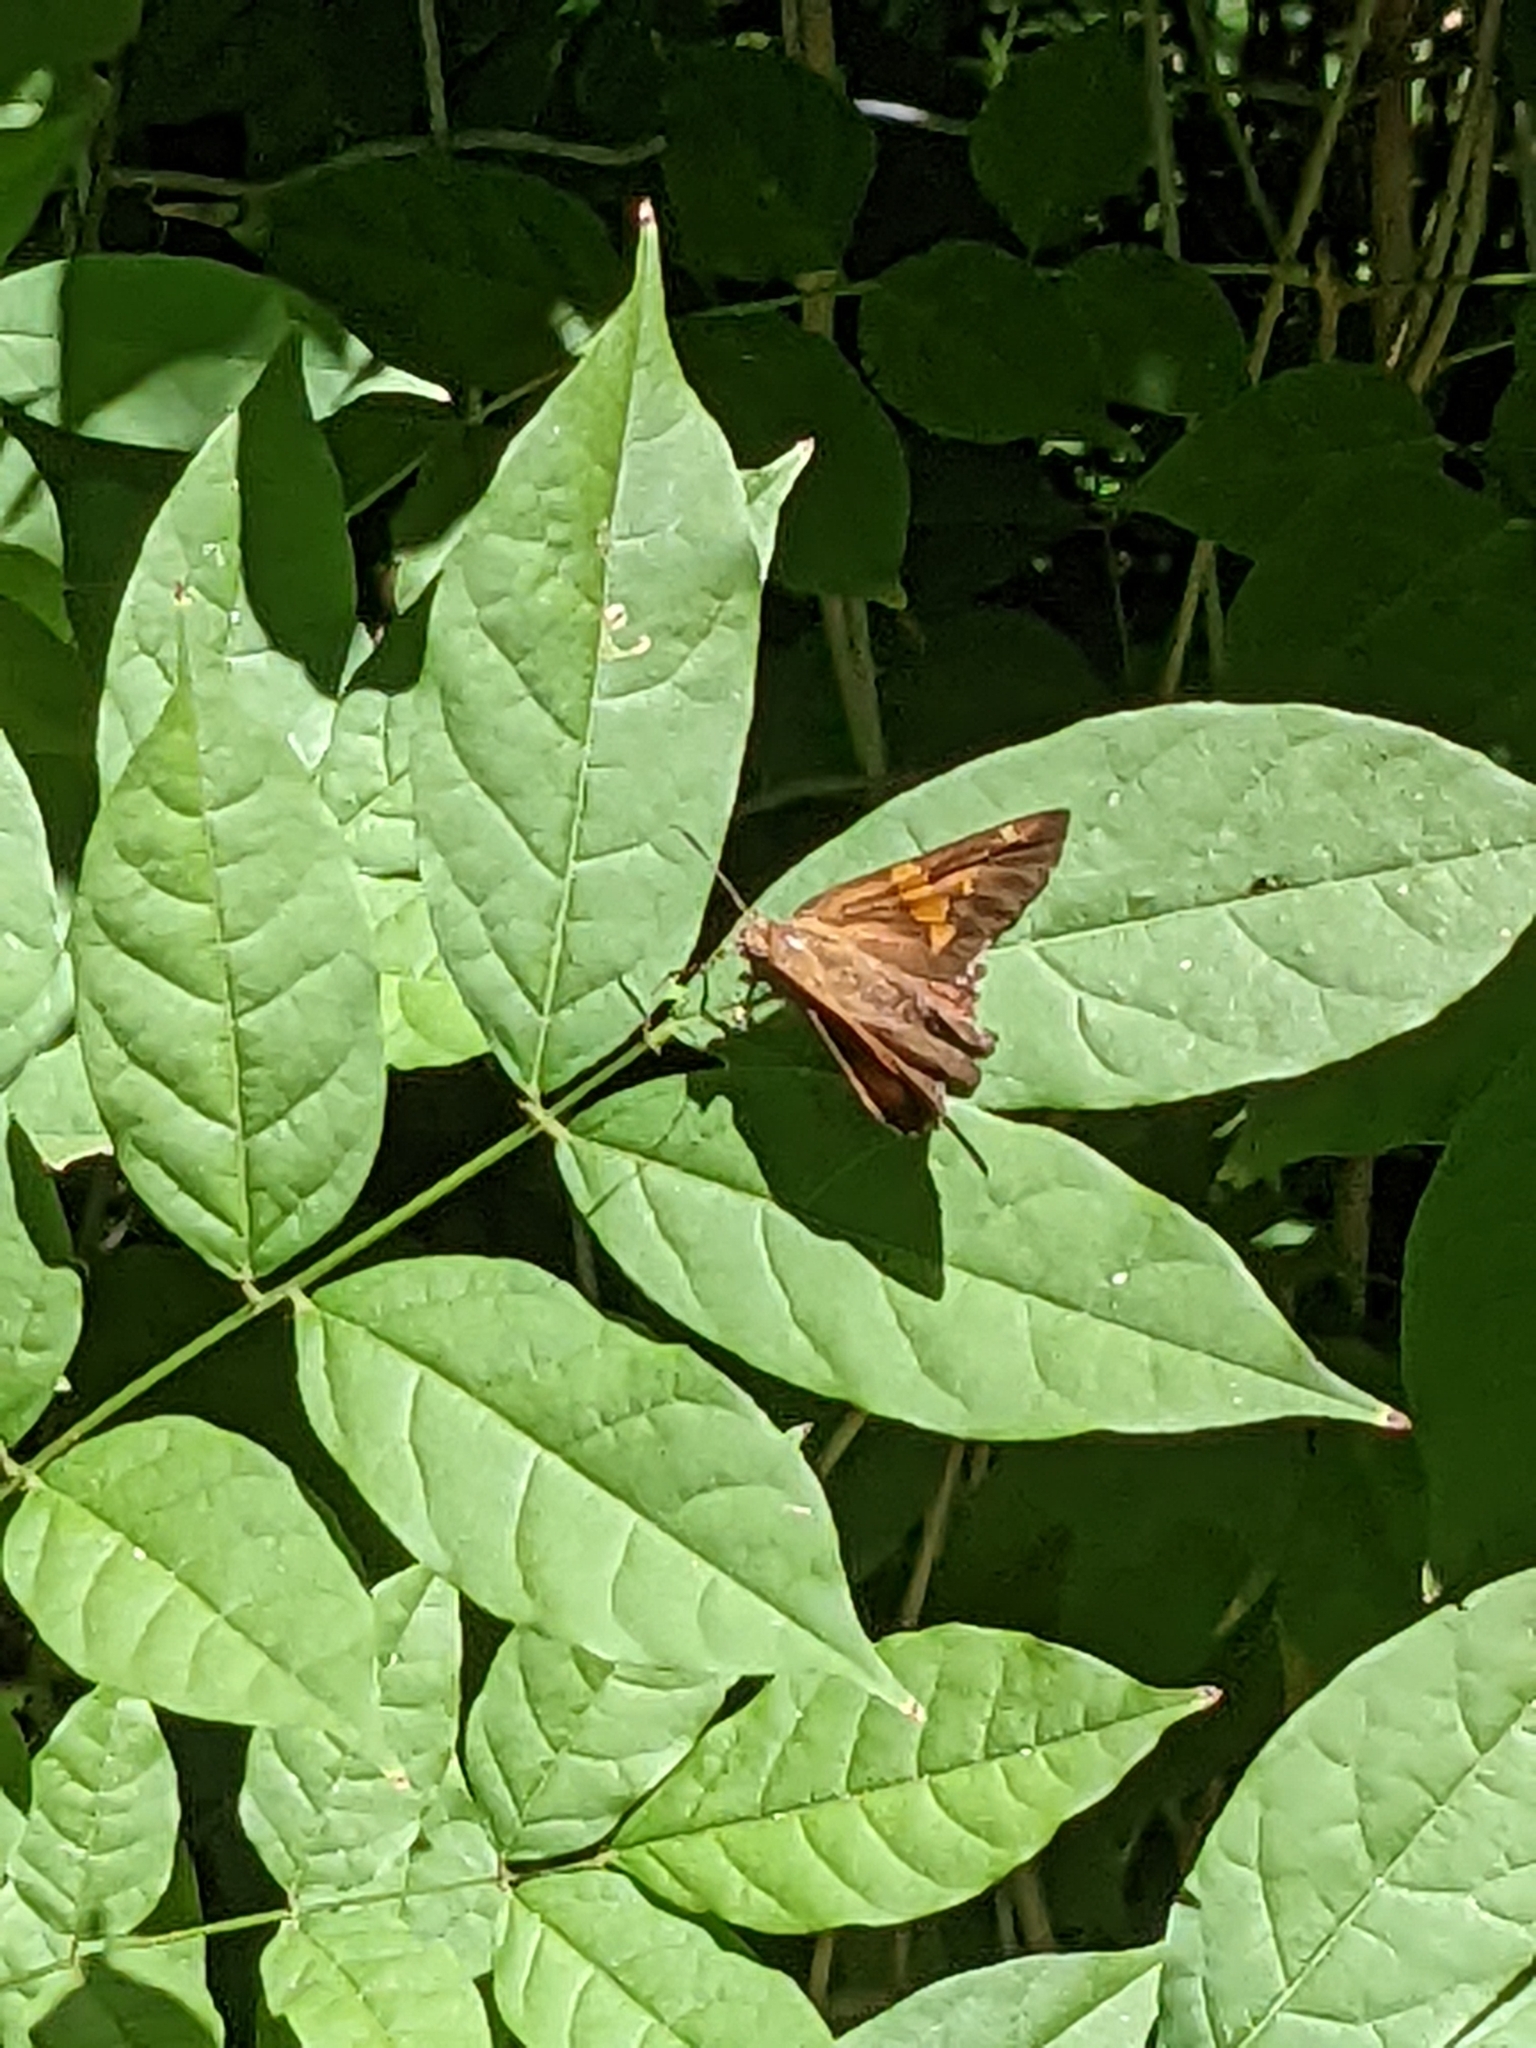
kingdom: Animalia
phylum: Arthropoda
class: Insecta
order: Lepidoptera
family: Hesperiidae
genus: Epargyreus
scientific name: Epargyreus clarus
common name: Silver-spotted skipper
